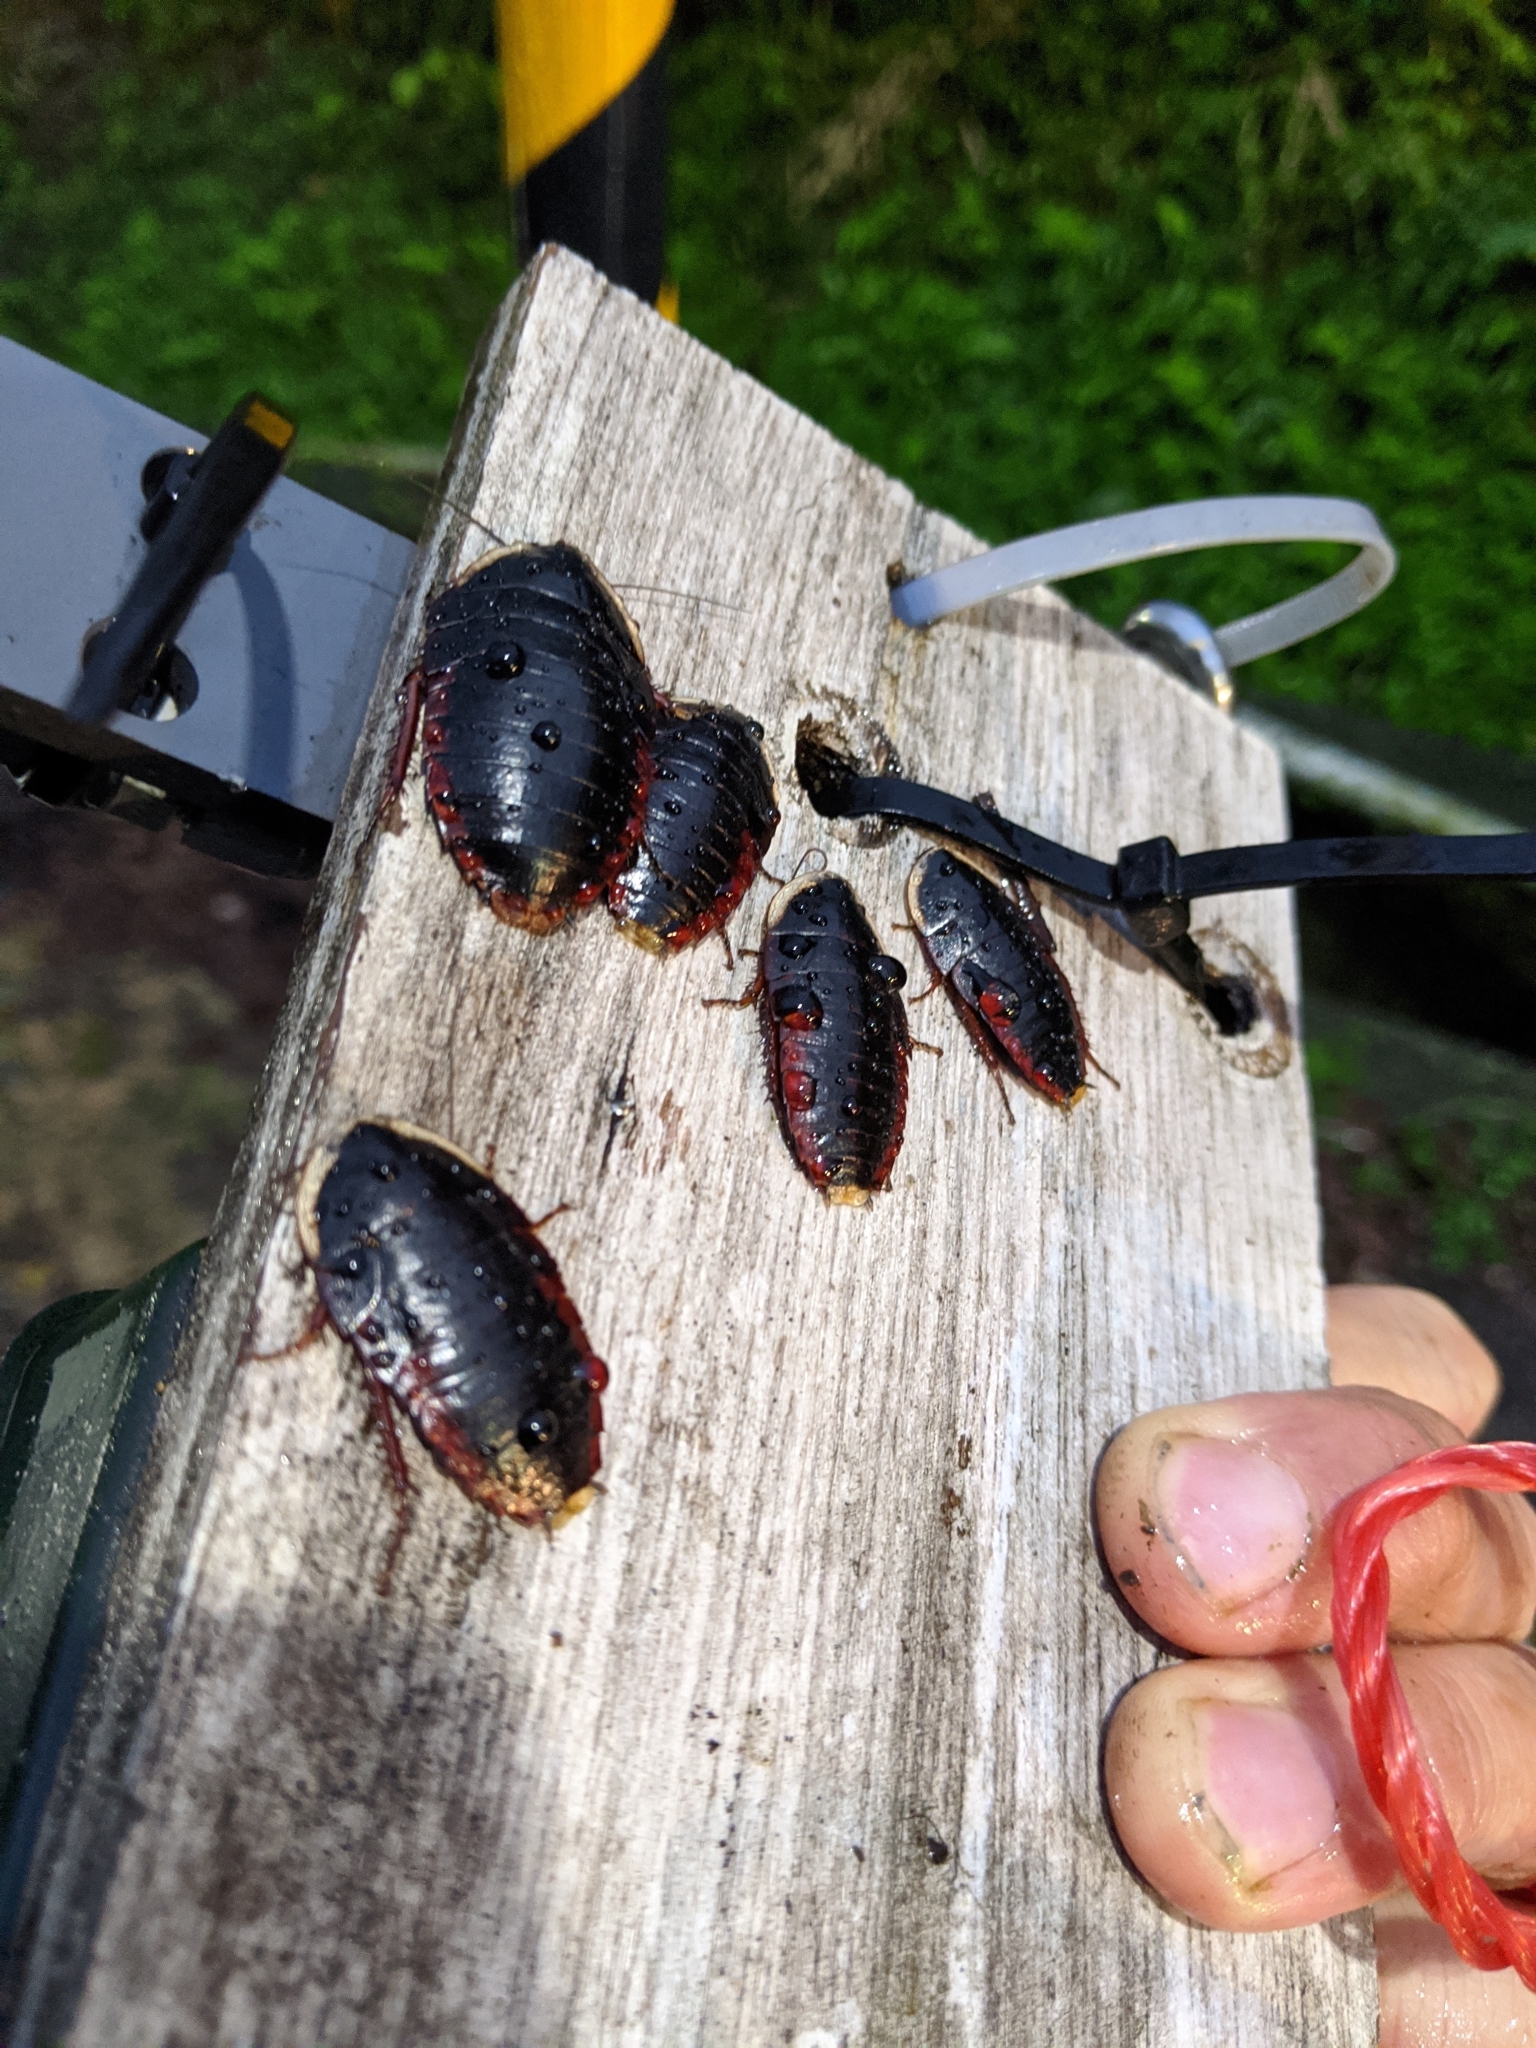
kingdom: Animalia
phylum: Arthropoda
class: Insecta
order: Blattodea
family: Blaberidae
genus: Opisthoplatia
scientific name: Opisthoplatia orientalis
